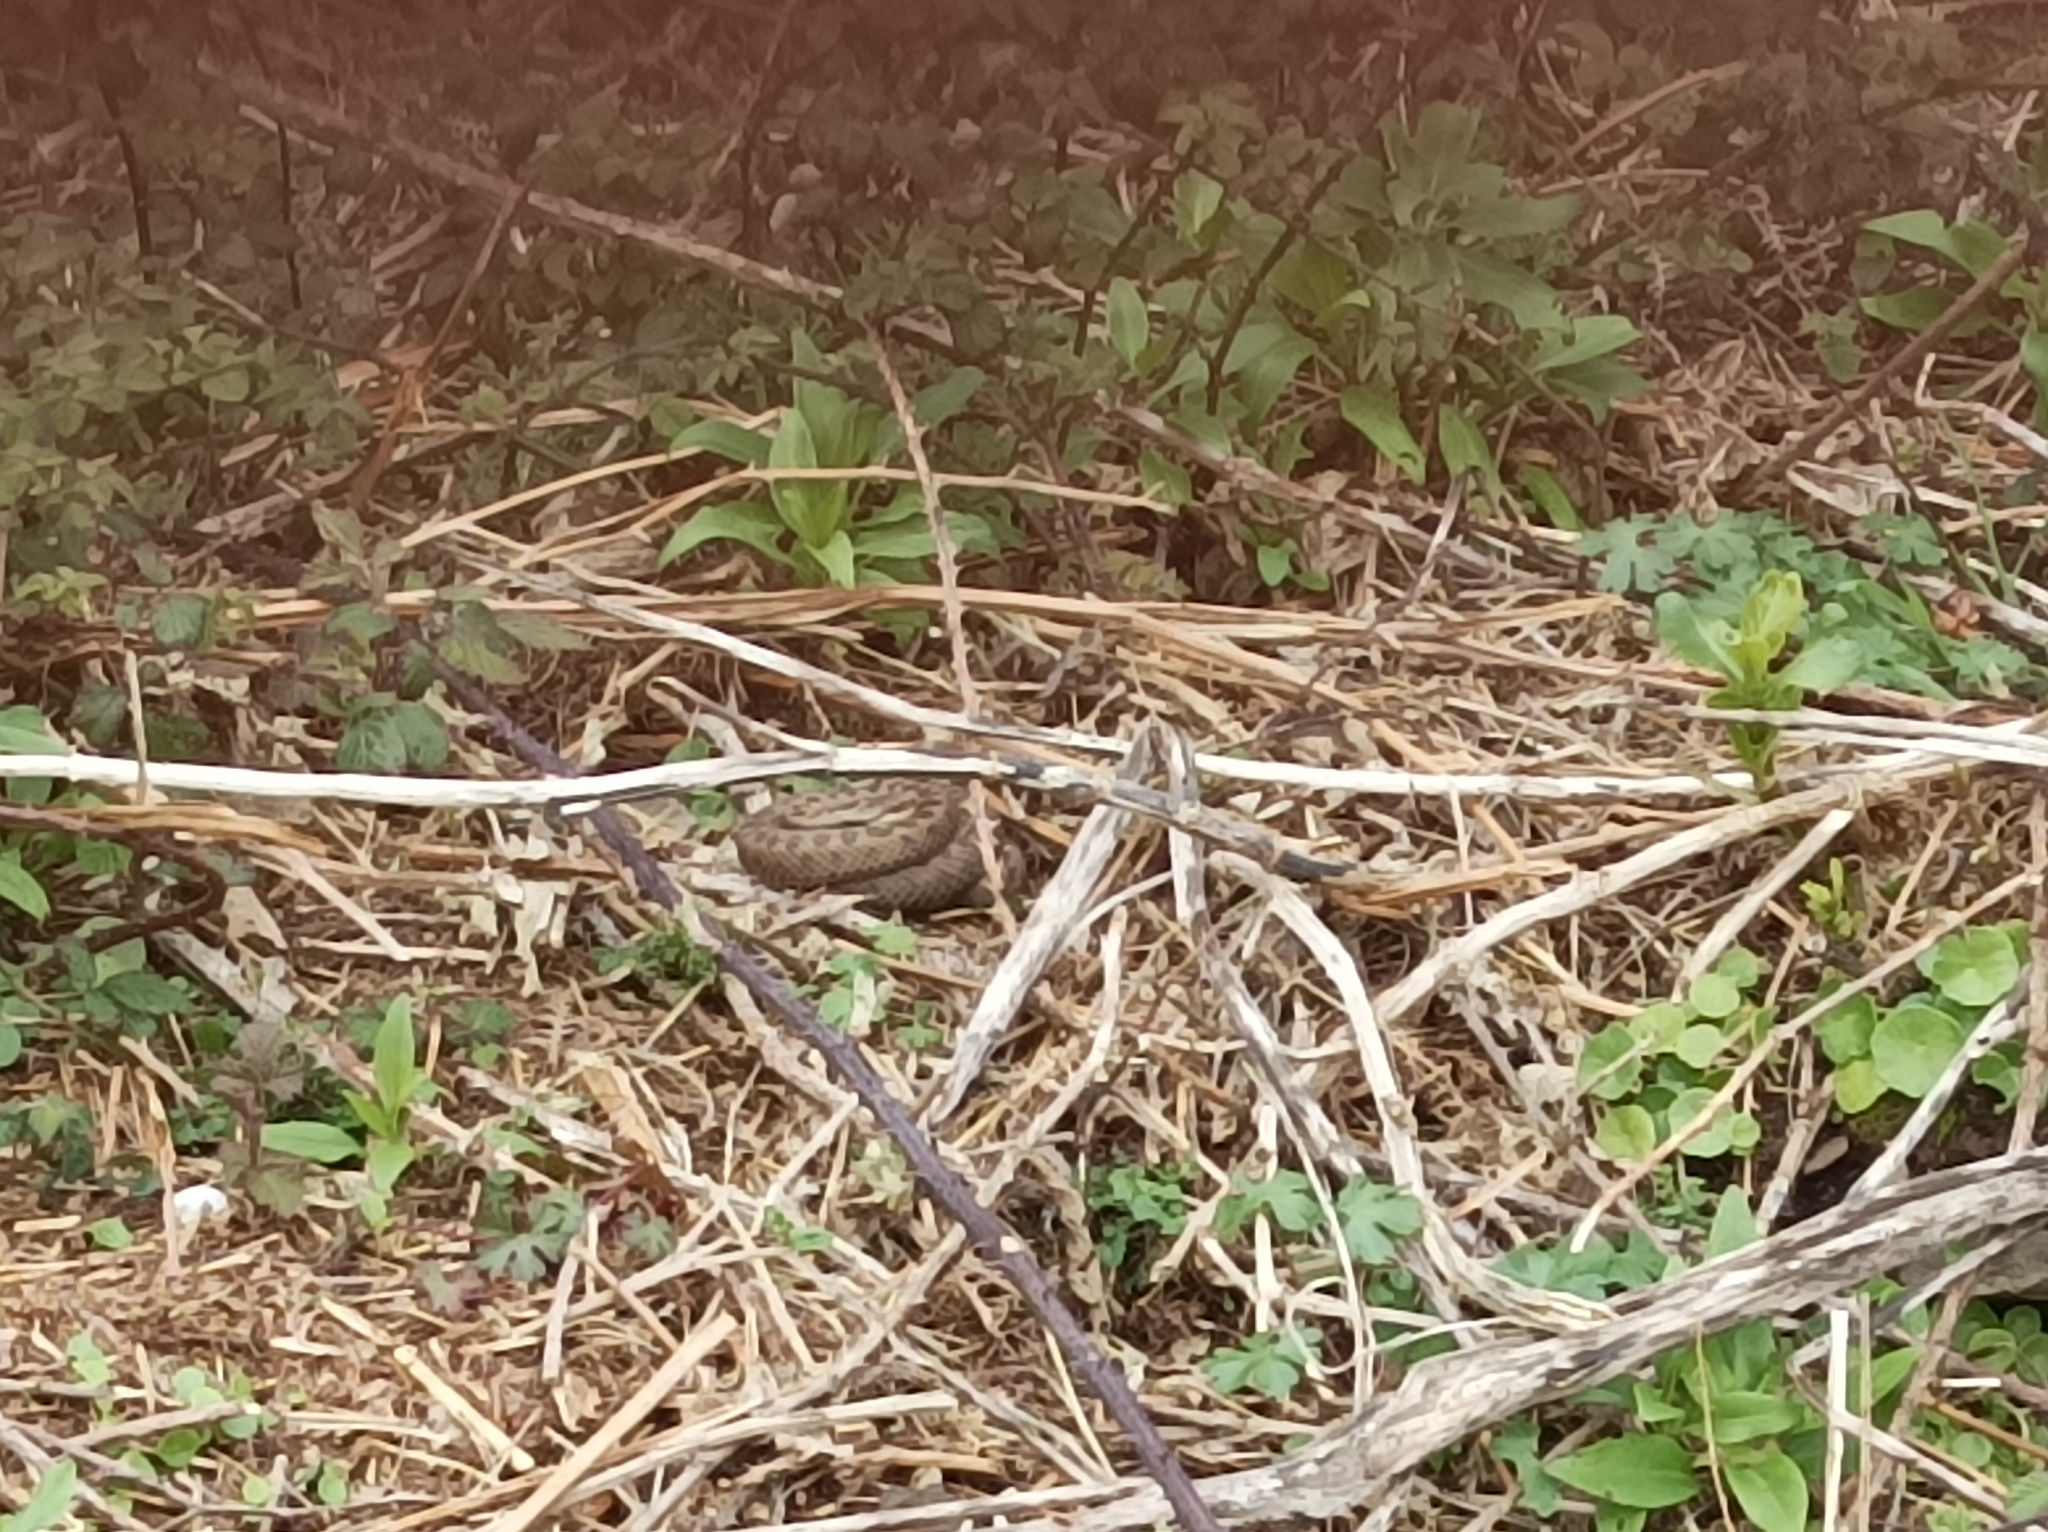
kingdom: Animalia
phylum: Chordata
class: Squamata
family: Viperidae
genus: Vipera
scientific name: Vipera berus
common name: Adder
